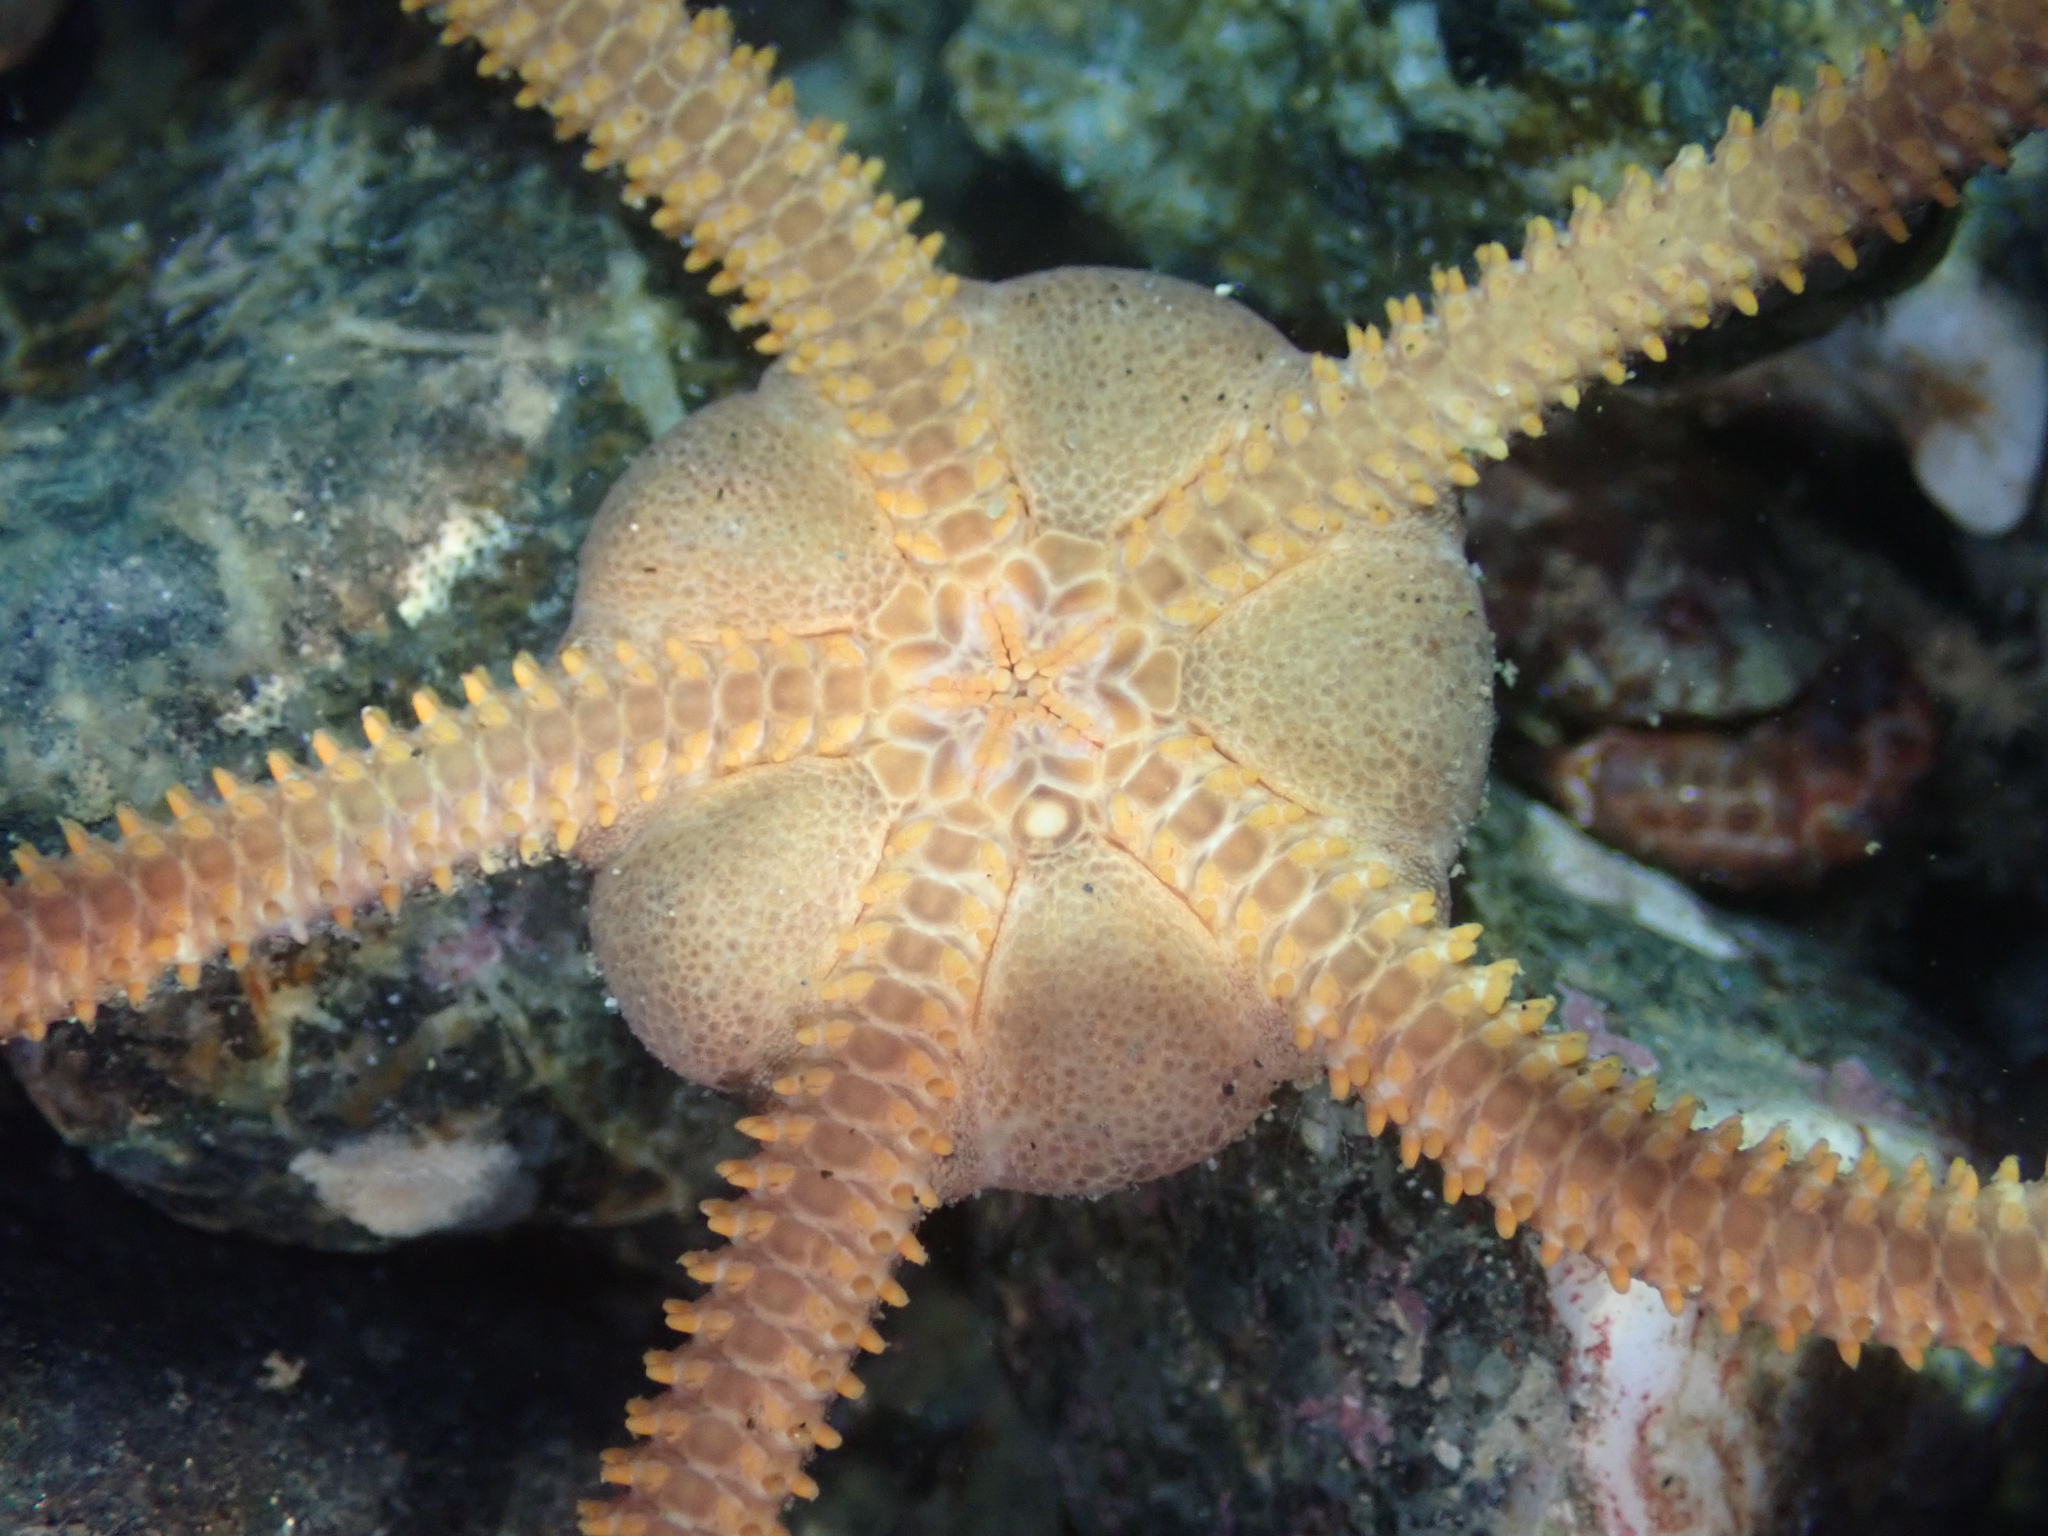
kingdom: Animalia
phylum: Echinodermata
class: Ophiuroidea
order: Amphilepidida
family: Hemieuryalidae
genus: Ophioplocus
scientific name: Ophioplocus esmarki
